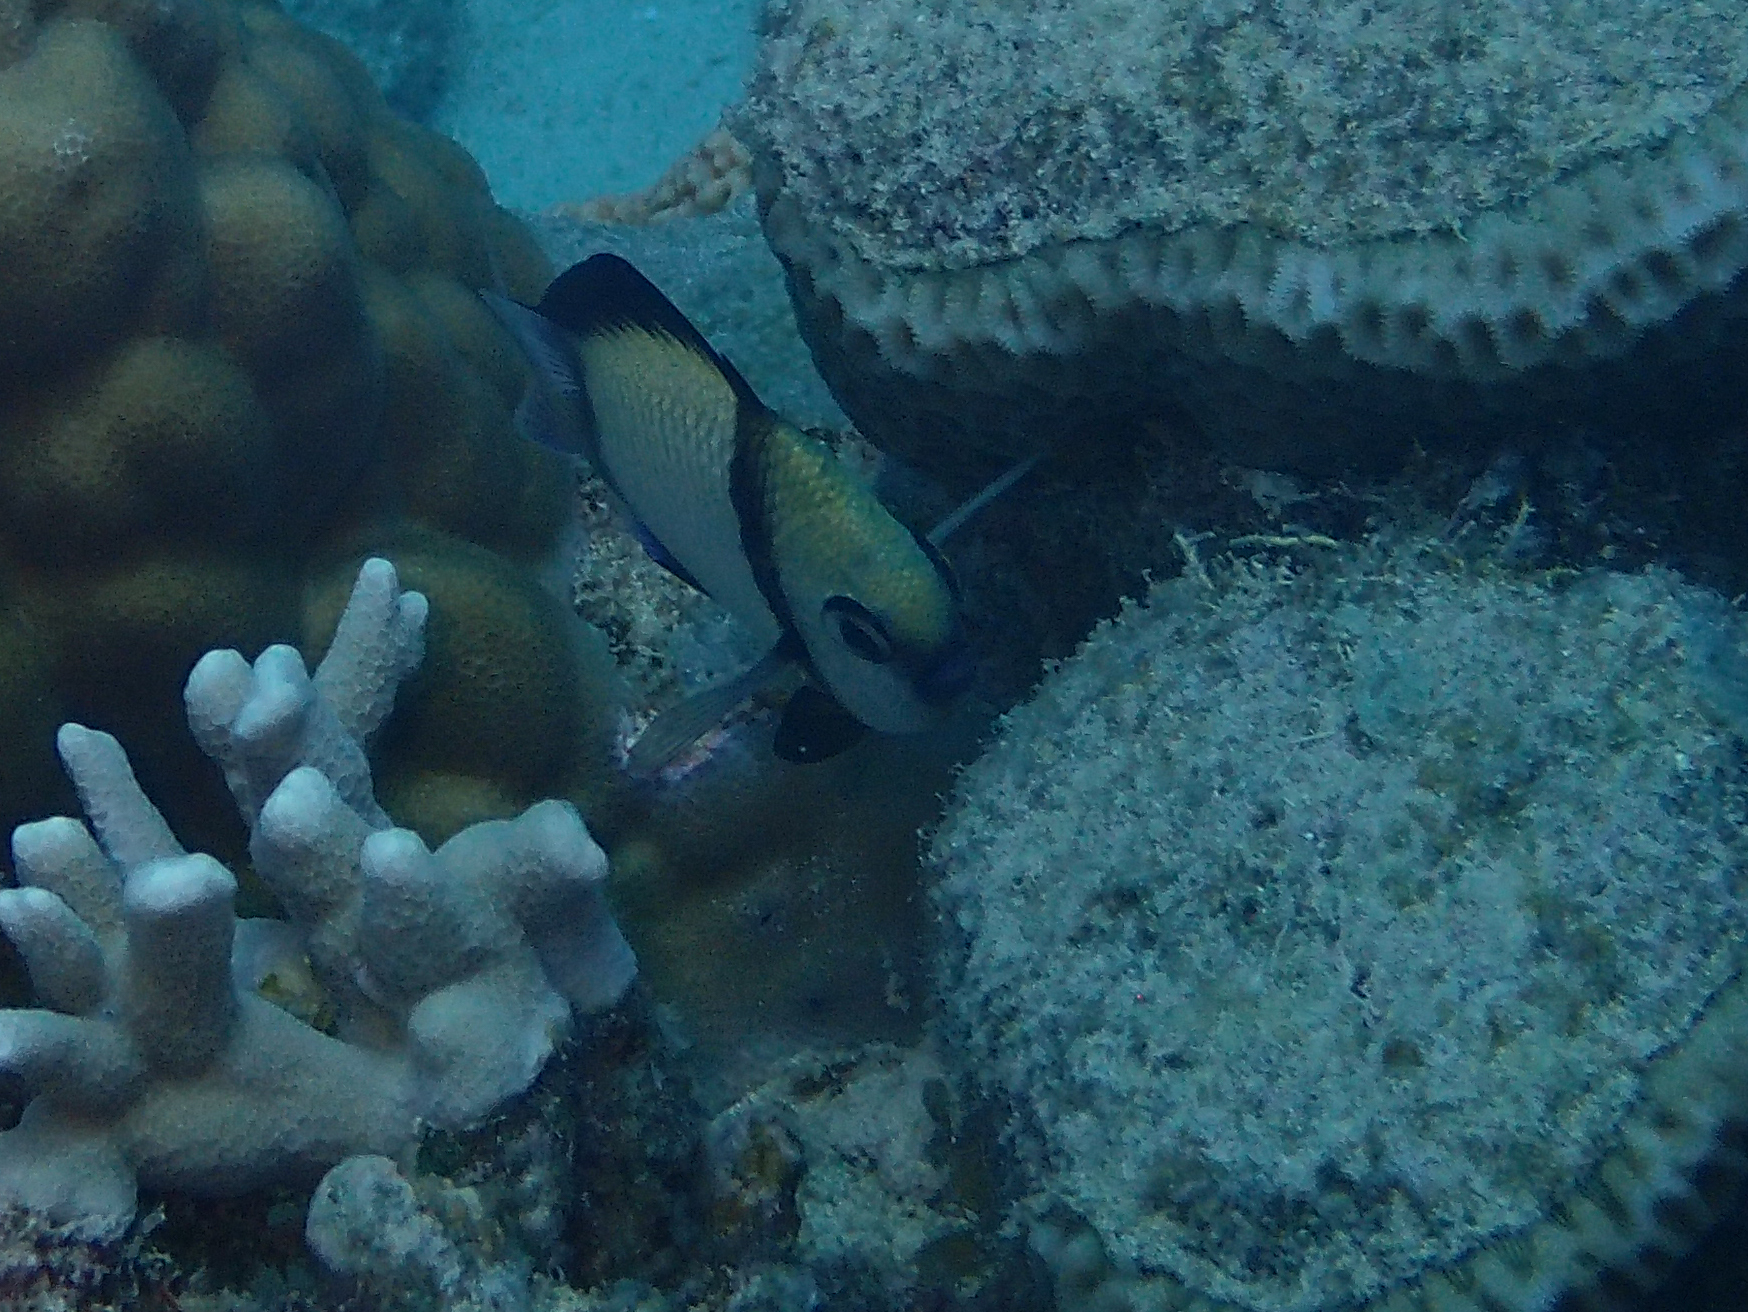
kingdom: Animalia
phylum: Chordata
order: Perciformes
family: Pomacentridae
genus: Dascyllus
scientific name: Dascyllus reticulatus
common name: Reticulated dascyllus
